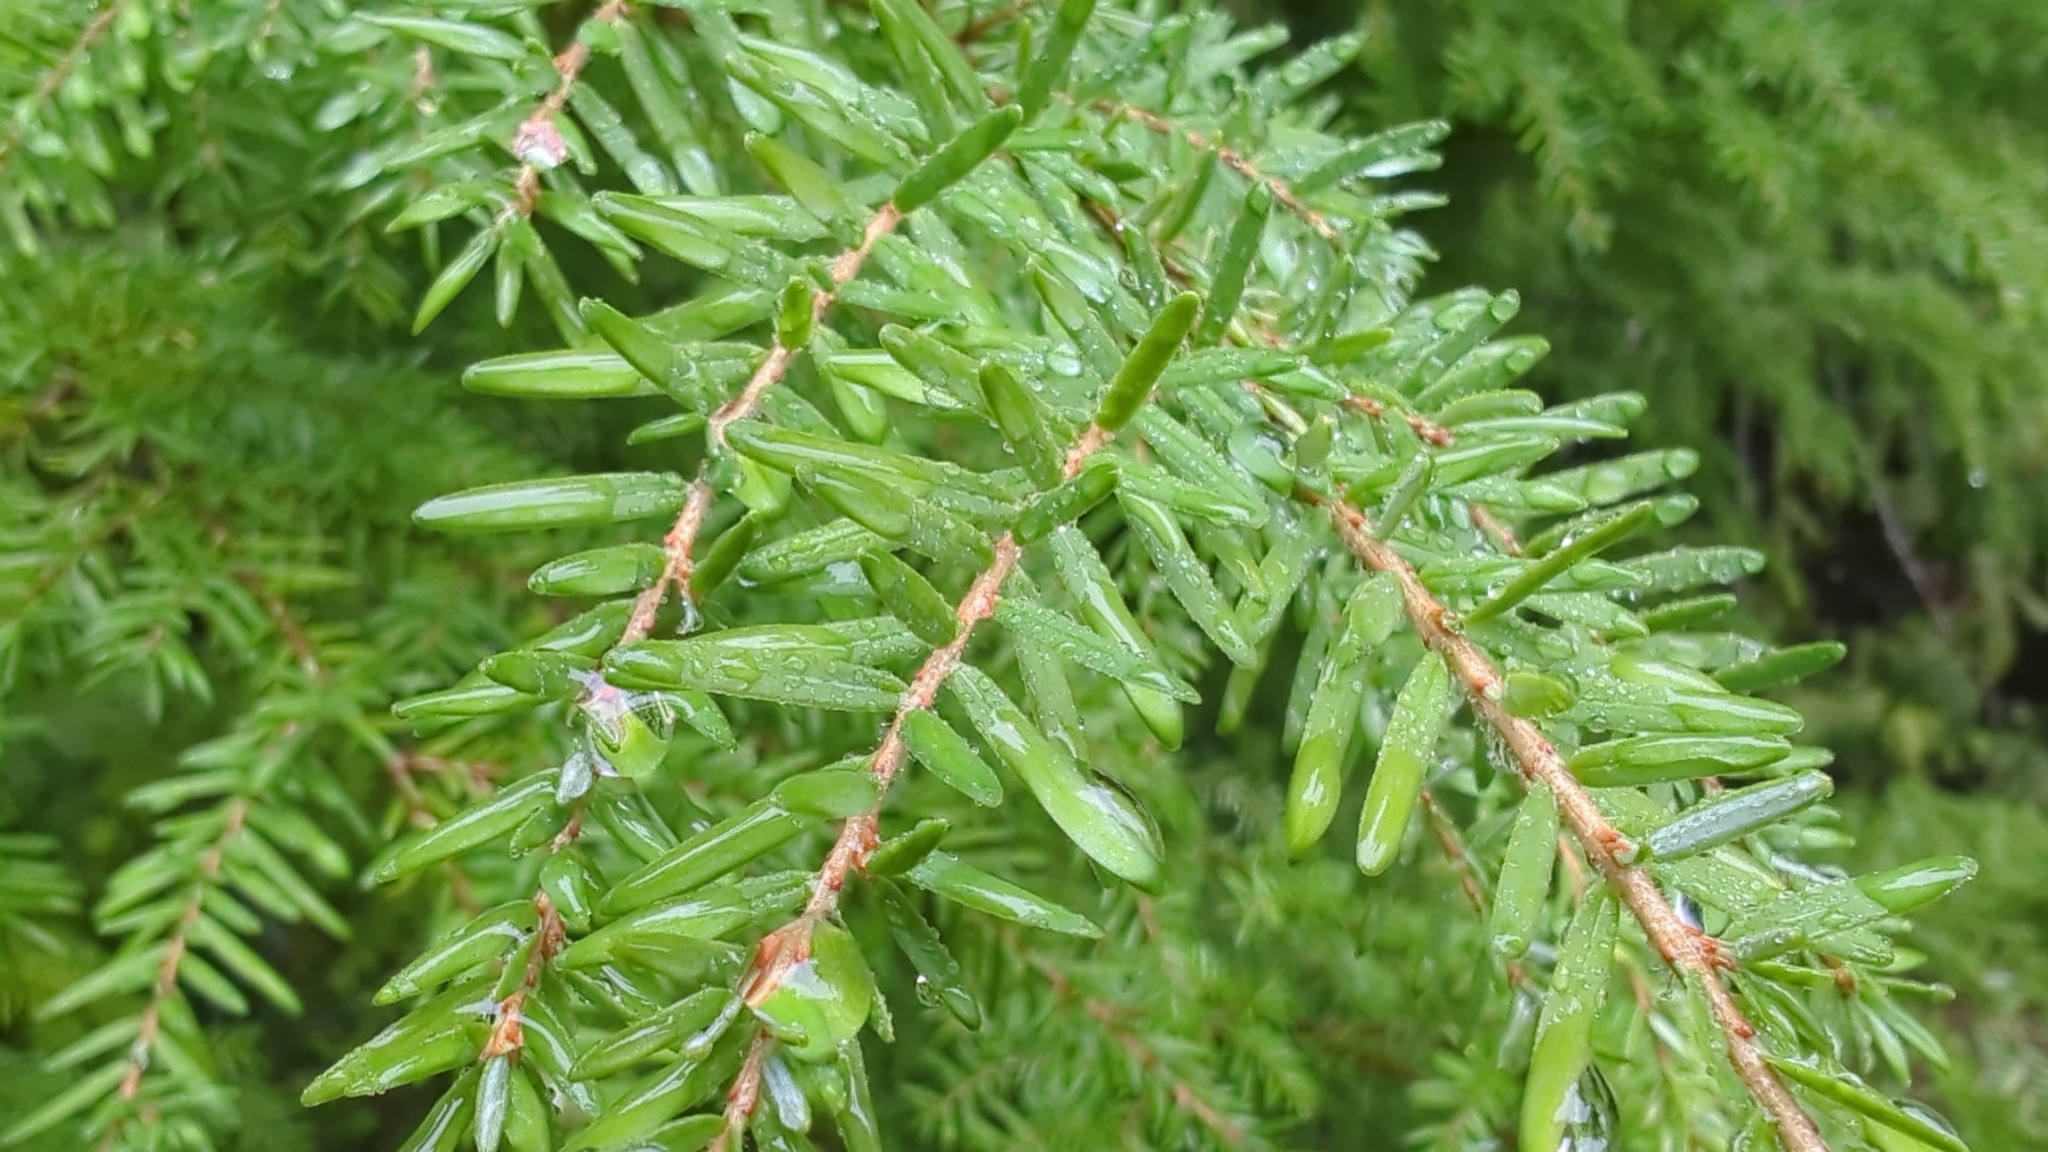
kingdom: Plantae
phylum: Tracheophyta
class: Pinopsida
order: Pinales
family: Pinaceae
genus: Tsuga
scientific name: Tsuga heterophylla
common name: Western hemlock
